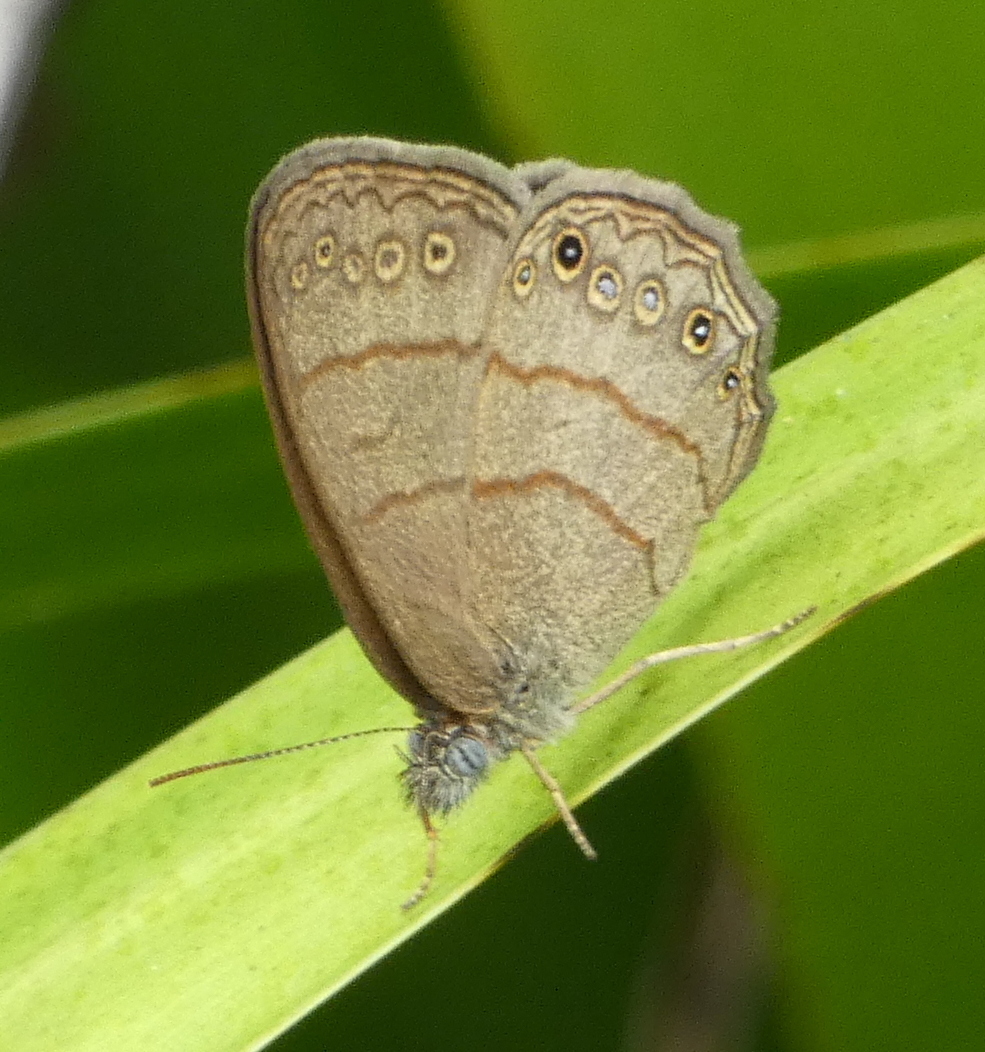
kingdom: Animalia
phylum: Arthropoda
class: Insecta
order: Lepidoptera
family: Nymphalidae
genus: Hermeuptychia
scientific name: Hermeuptychia hermes
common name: Hermes satyr
